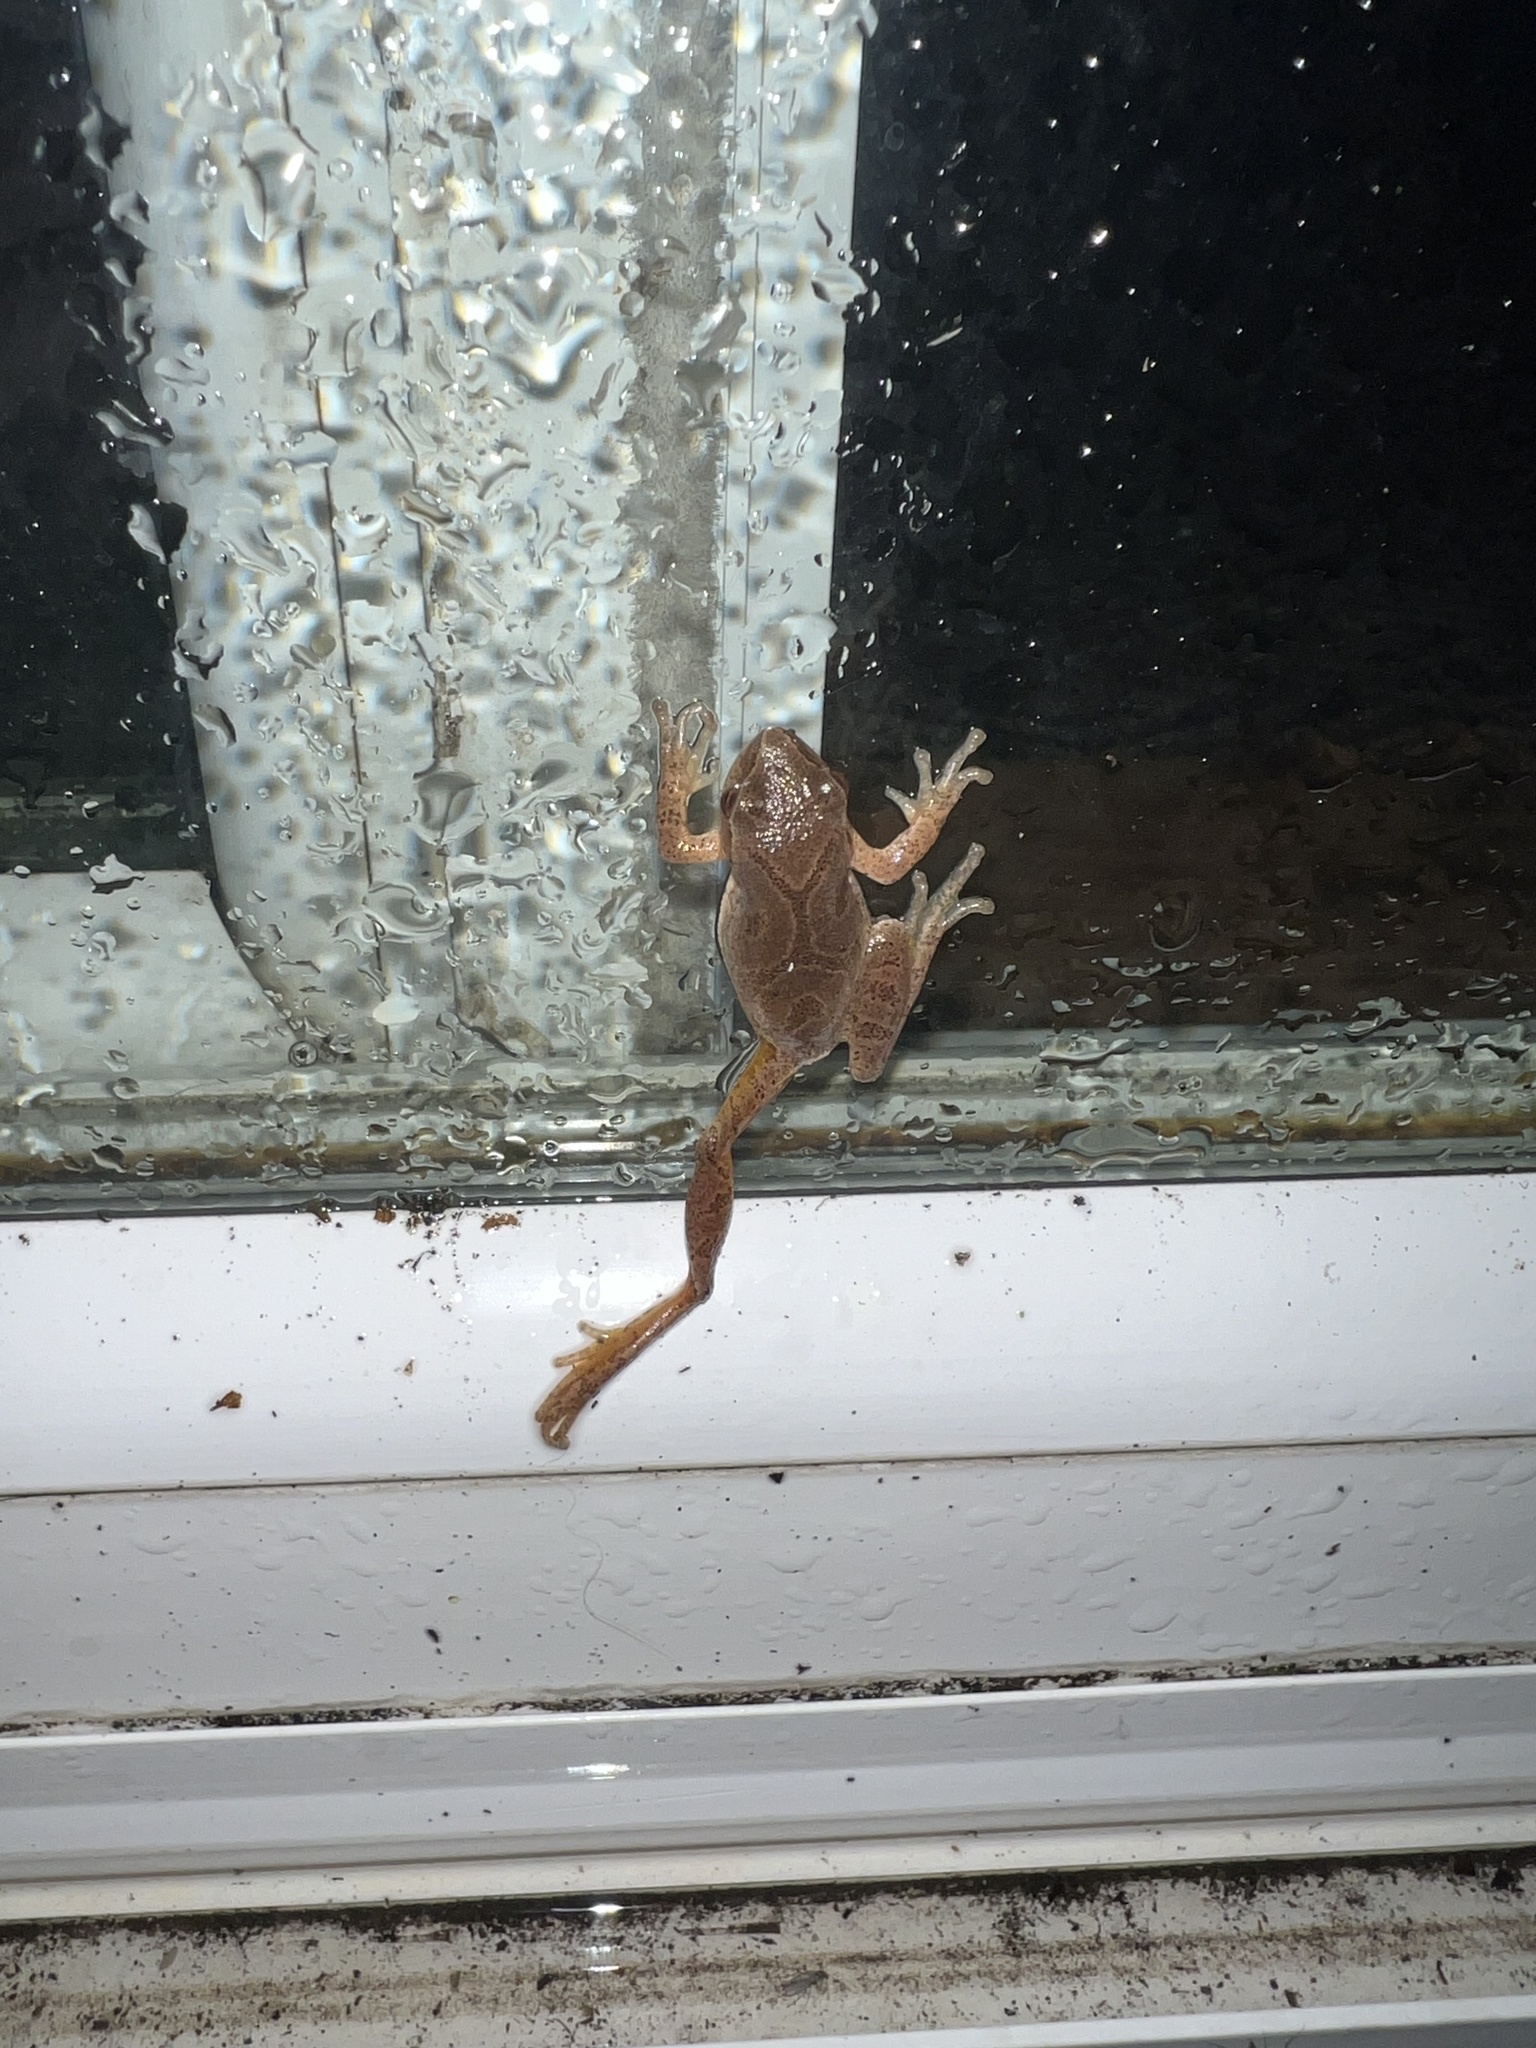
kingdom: Animalia
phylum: Chordata
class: Amphibia
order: Anura
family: Hylidae
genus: Pseudacris
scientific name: Pseudacris crucifer
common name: Spring peeper
